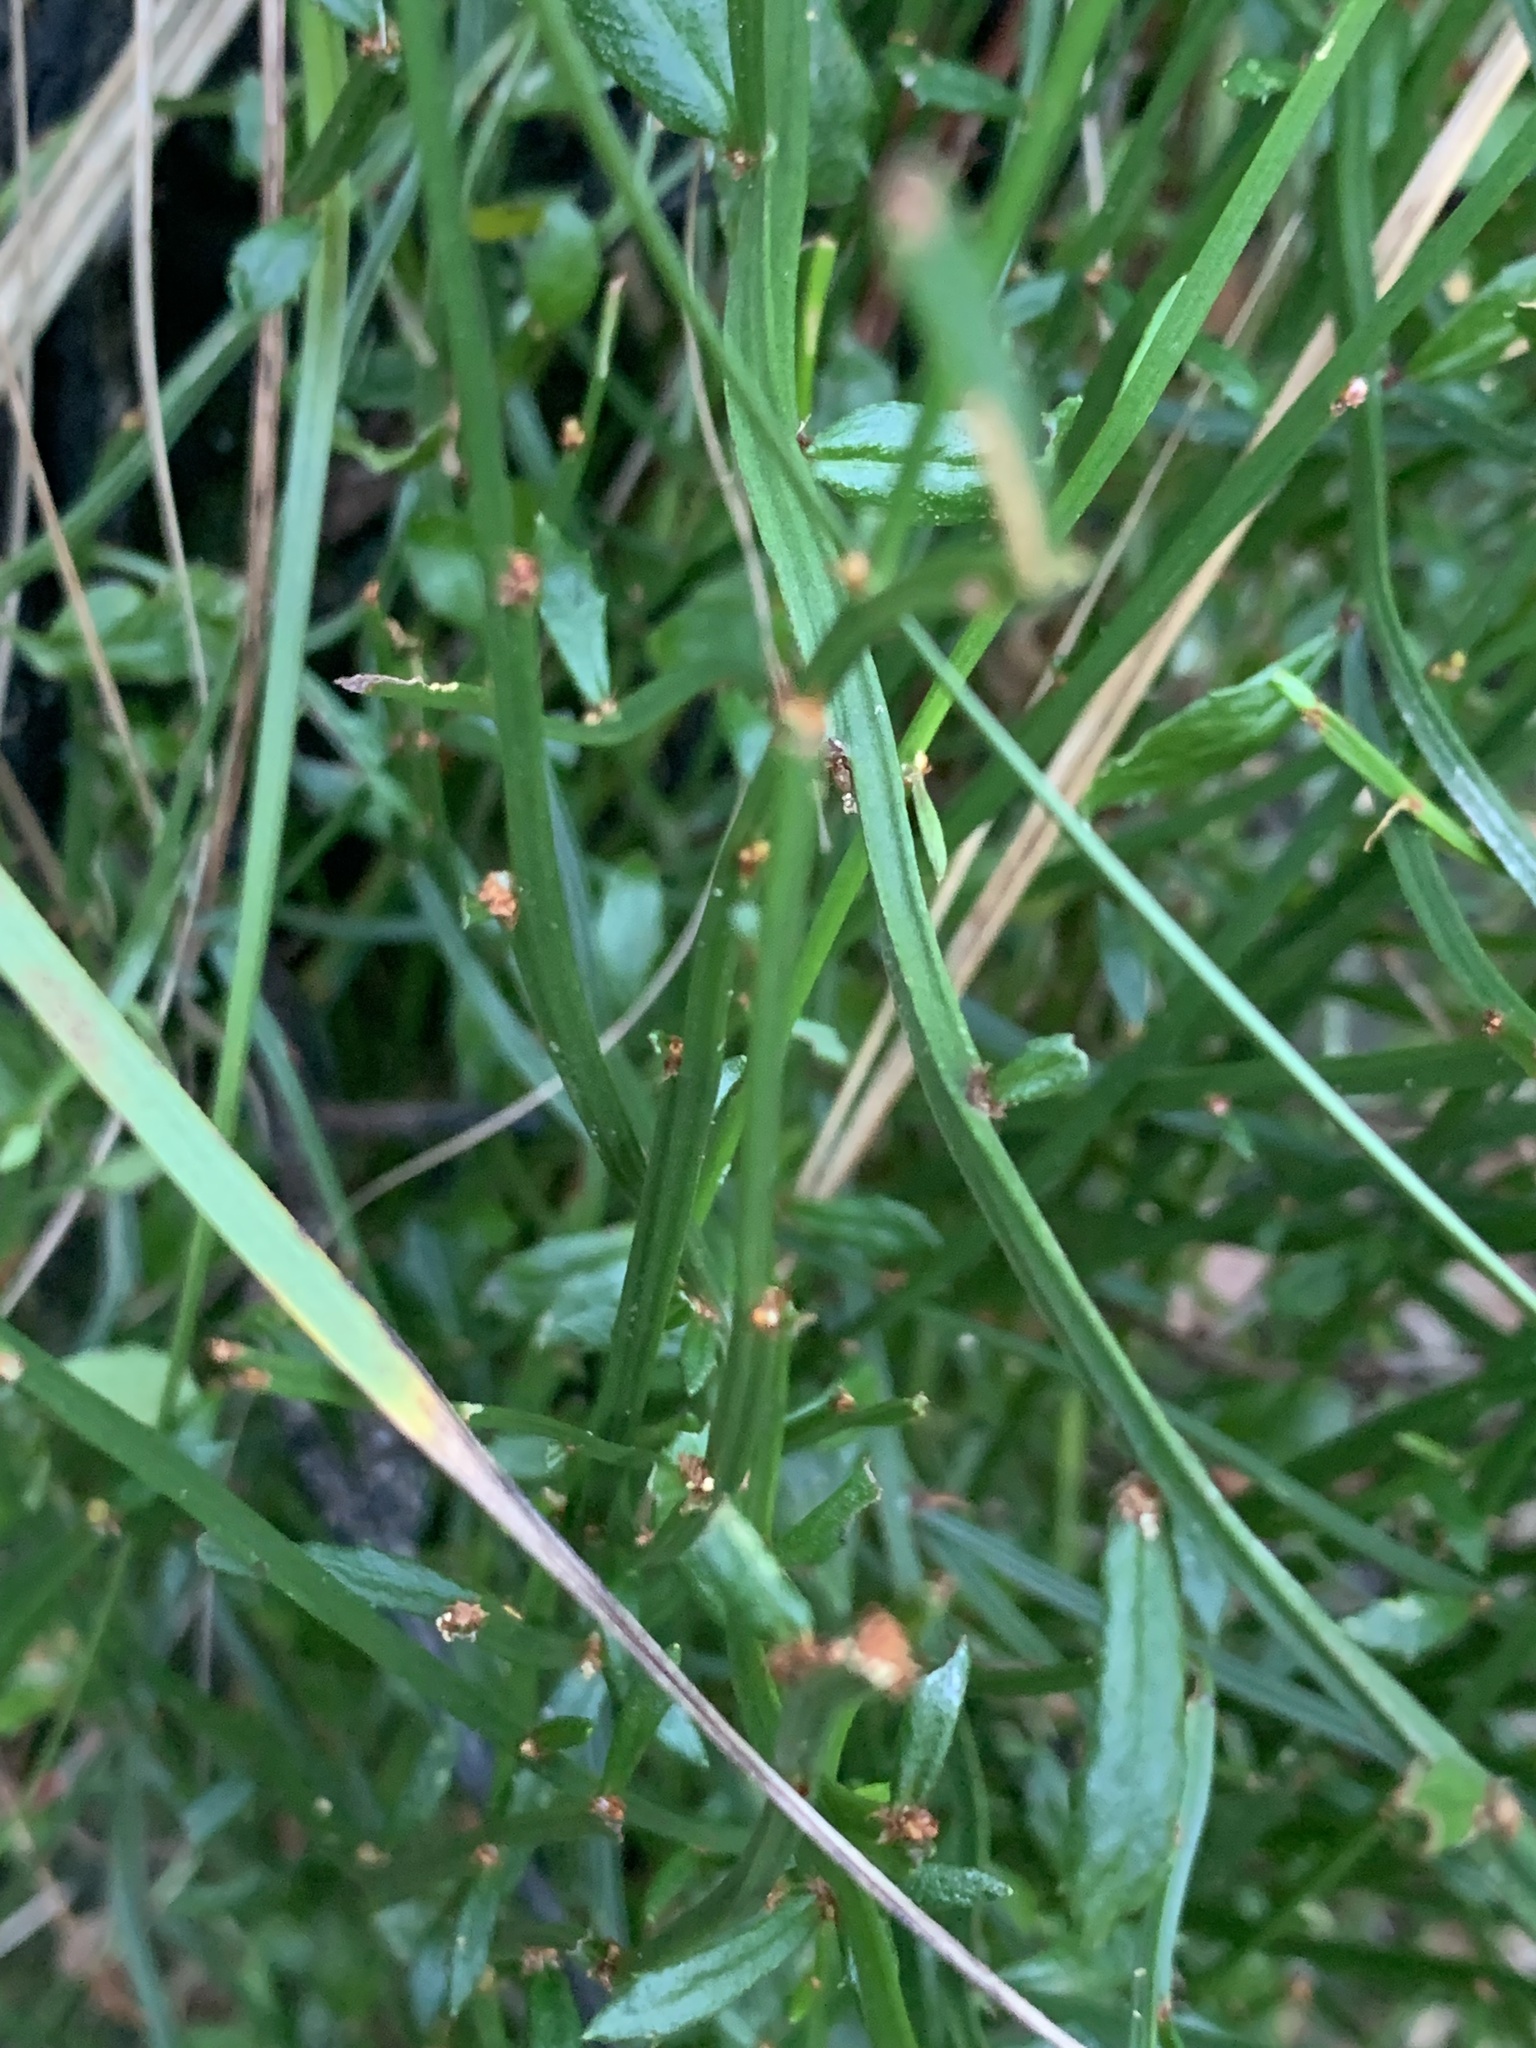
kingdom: Plantae
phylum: Tracheophyta
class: Magnoliopsida
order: Malpighiales
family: Euphorbiaceae
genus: Amperea
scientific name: Amperea xiphoclada
